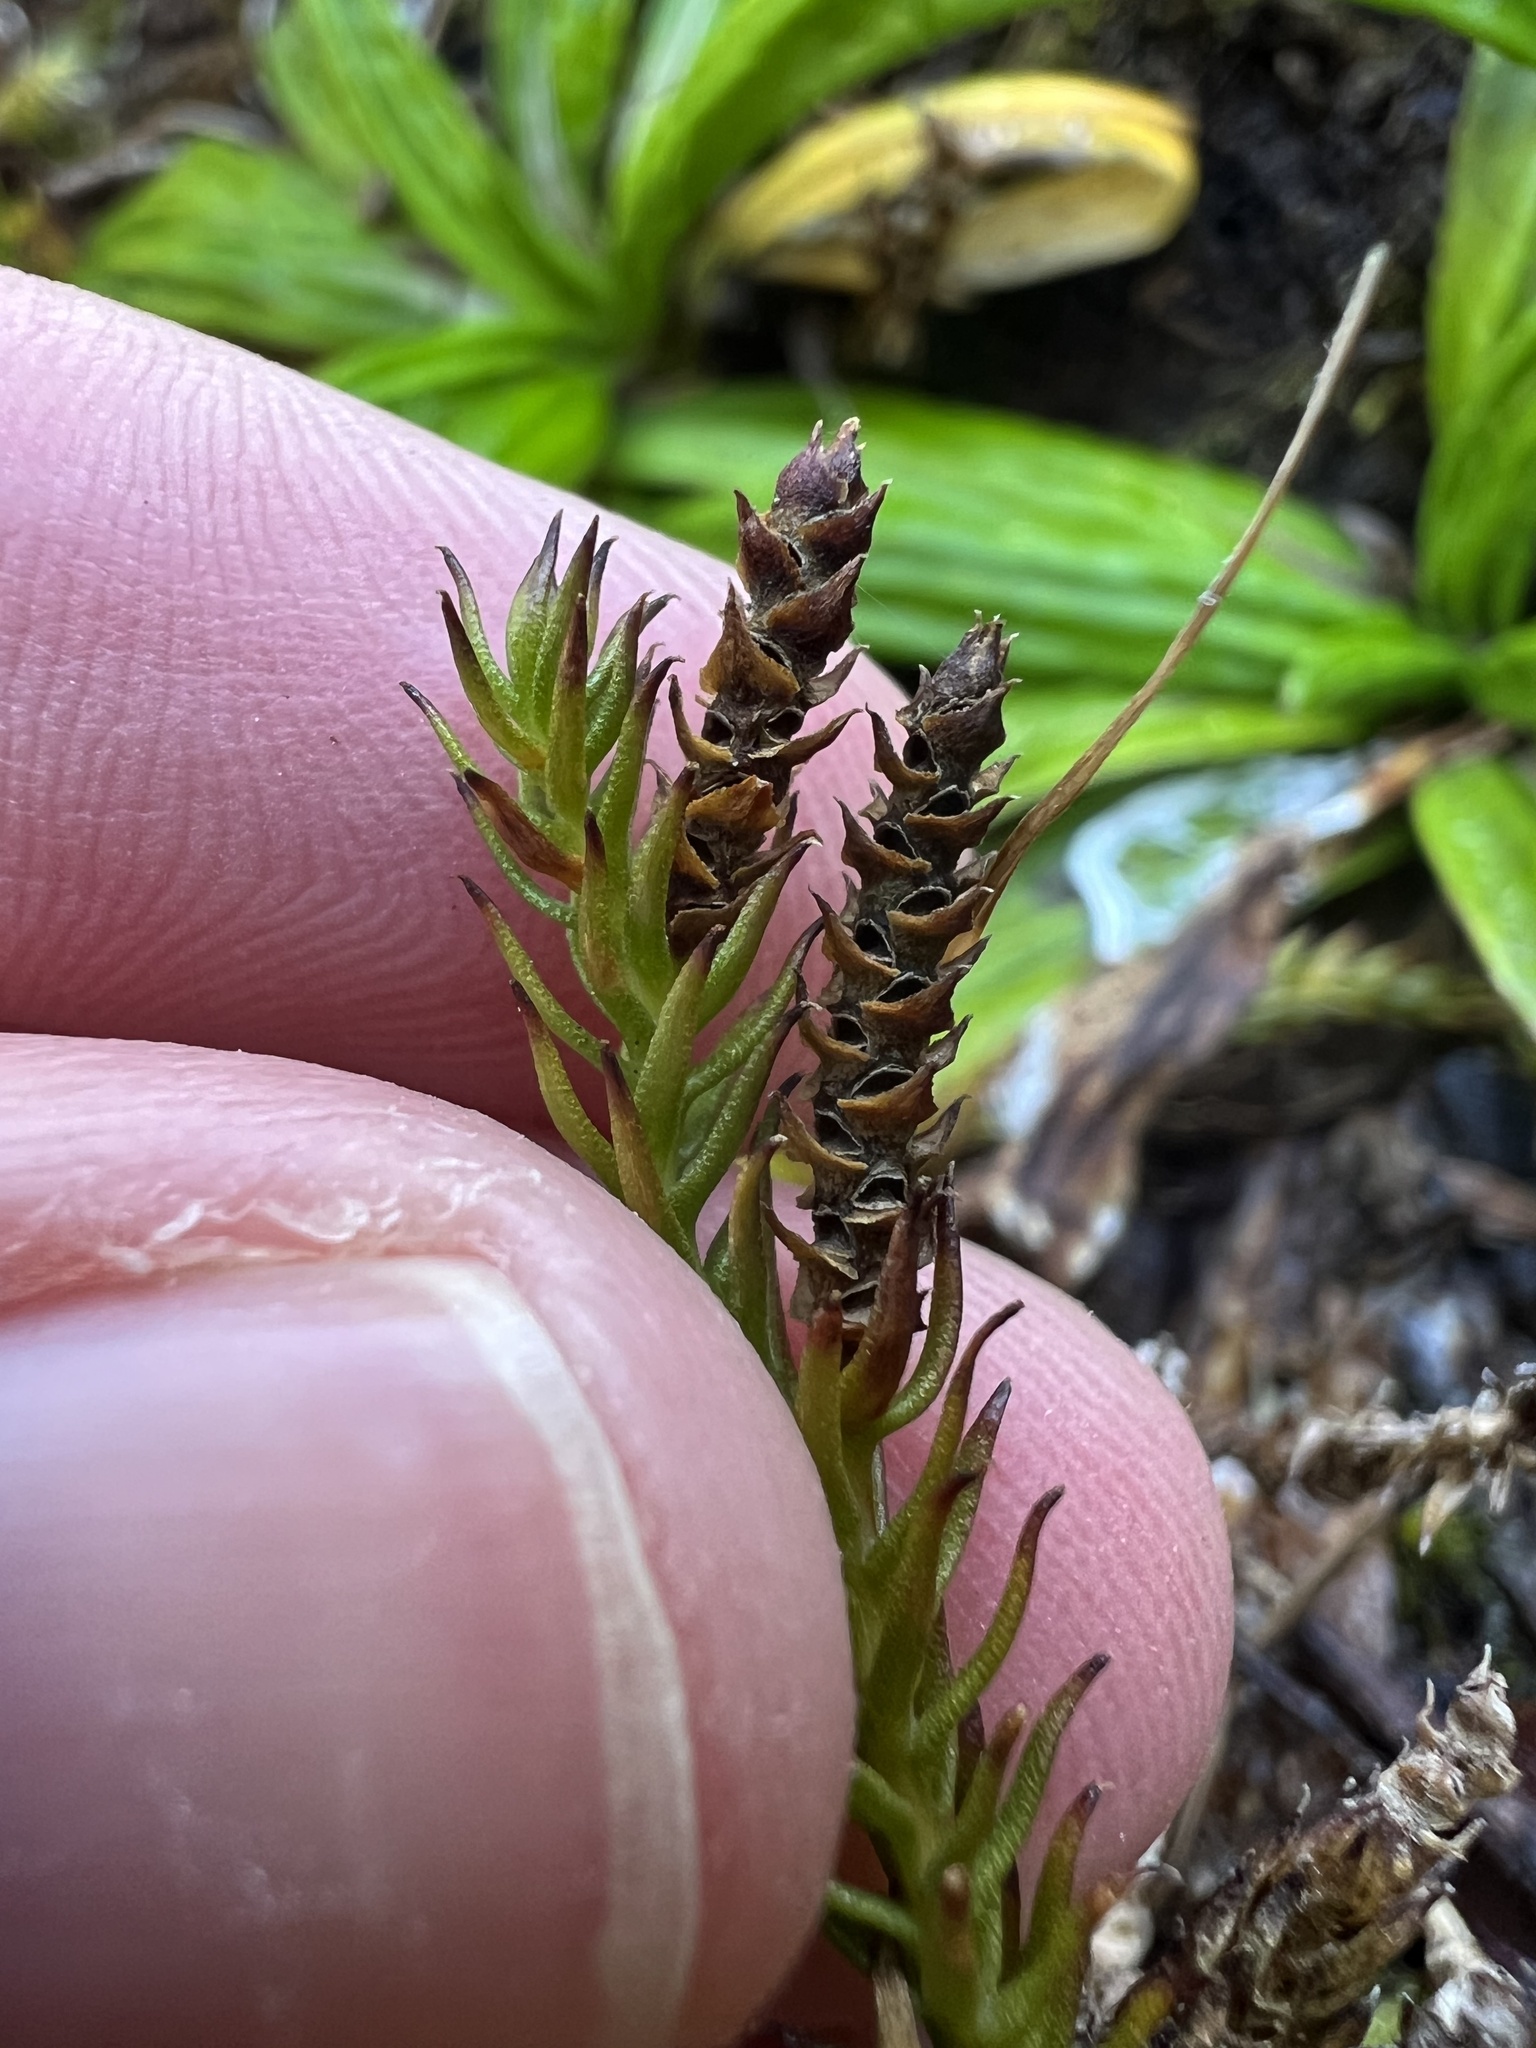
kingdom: Plantae
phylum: Tracheophyta
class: Lycopodiopsida
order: Lycopodiales
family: Lycopodiaceae
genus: Lateristachys
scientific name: Lateristachys lateralis
